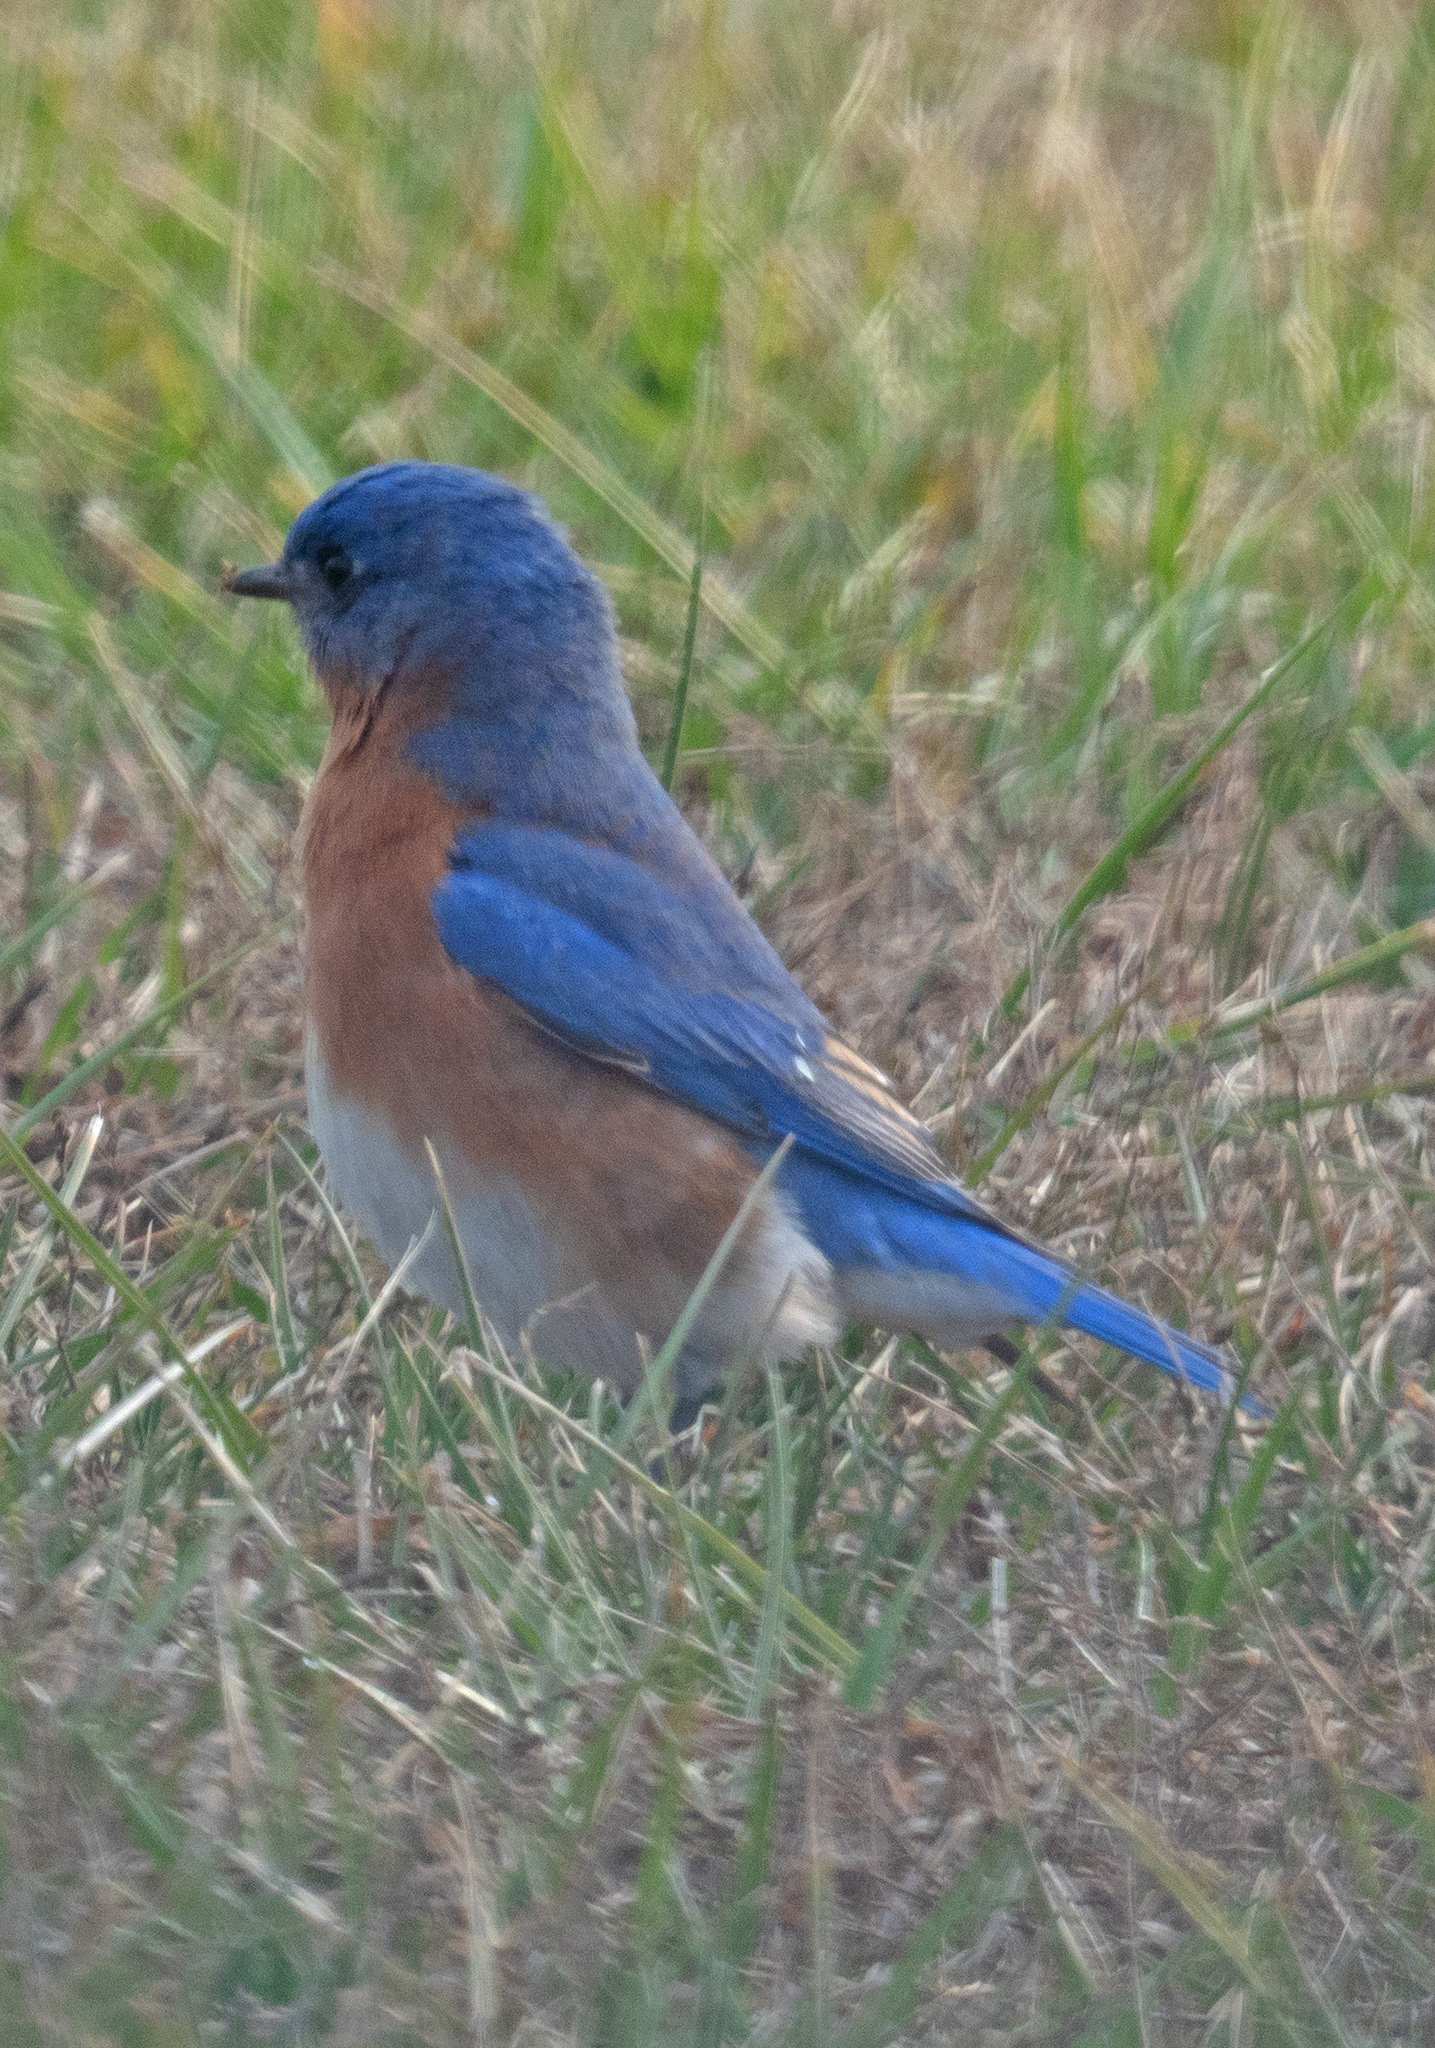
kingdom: Animalia
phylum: Chordata
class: Aves
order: Passeriformes
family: Turdidae
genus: Sialia
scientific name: Sialia sialis
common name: Eastern bluebird
